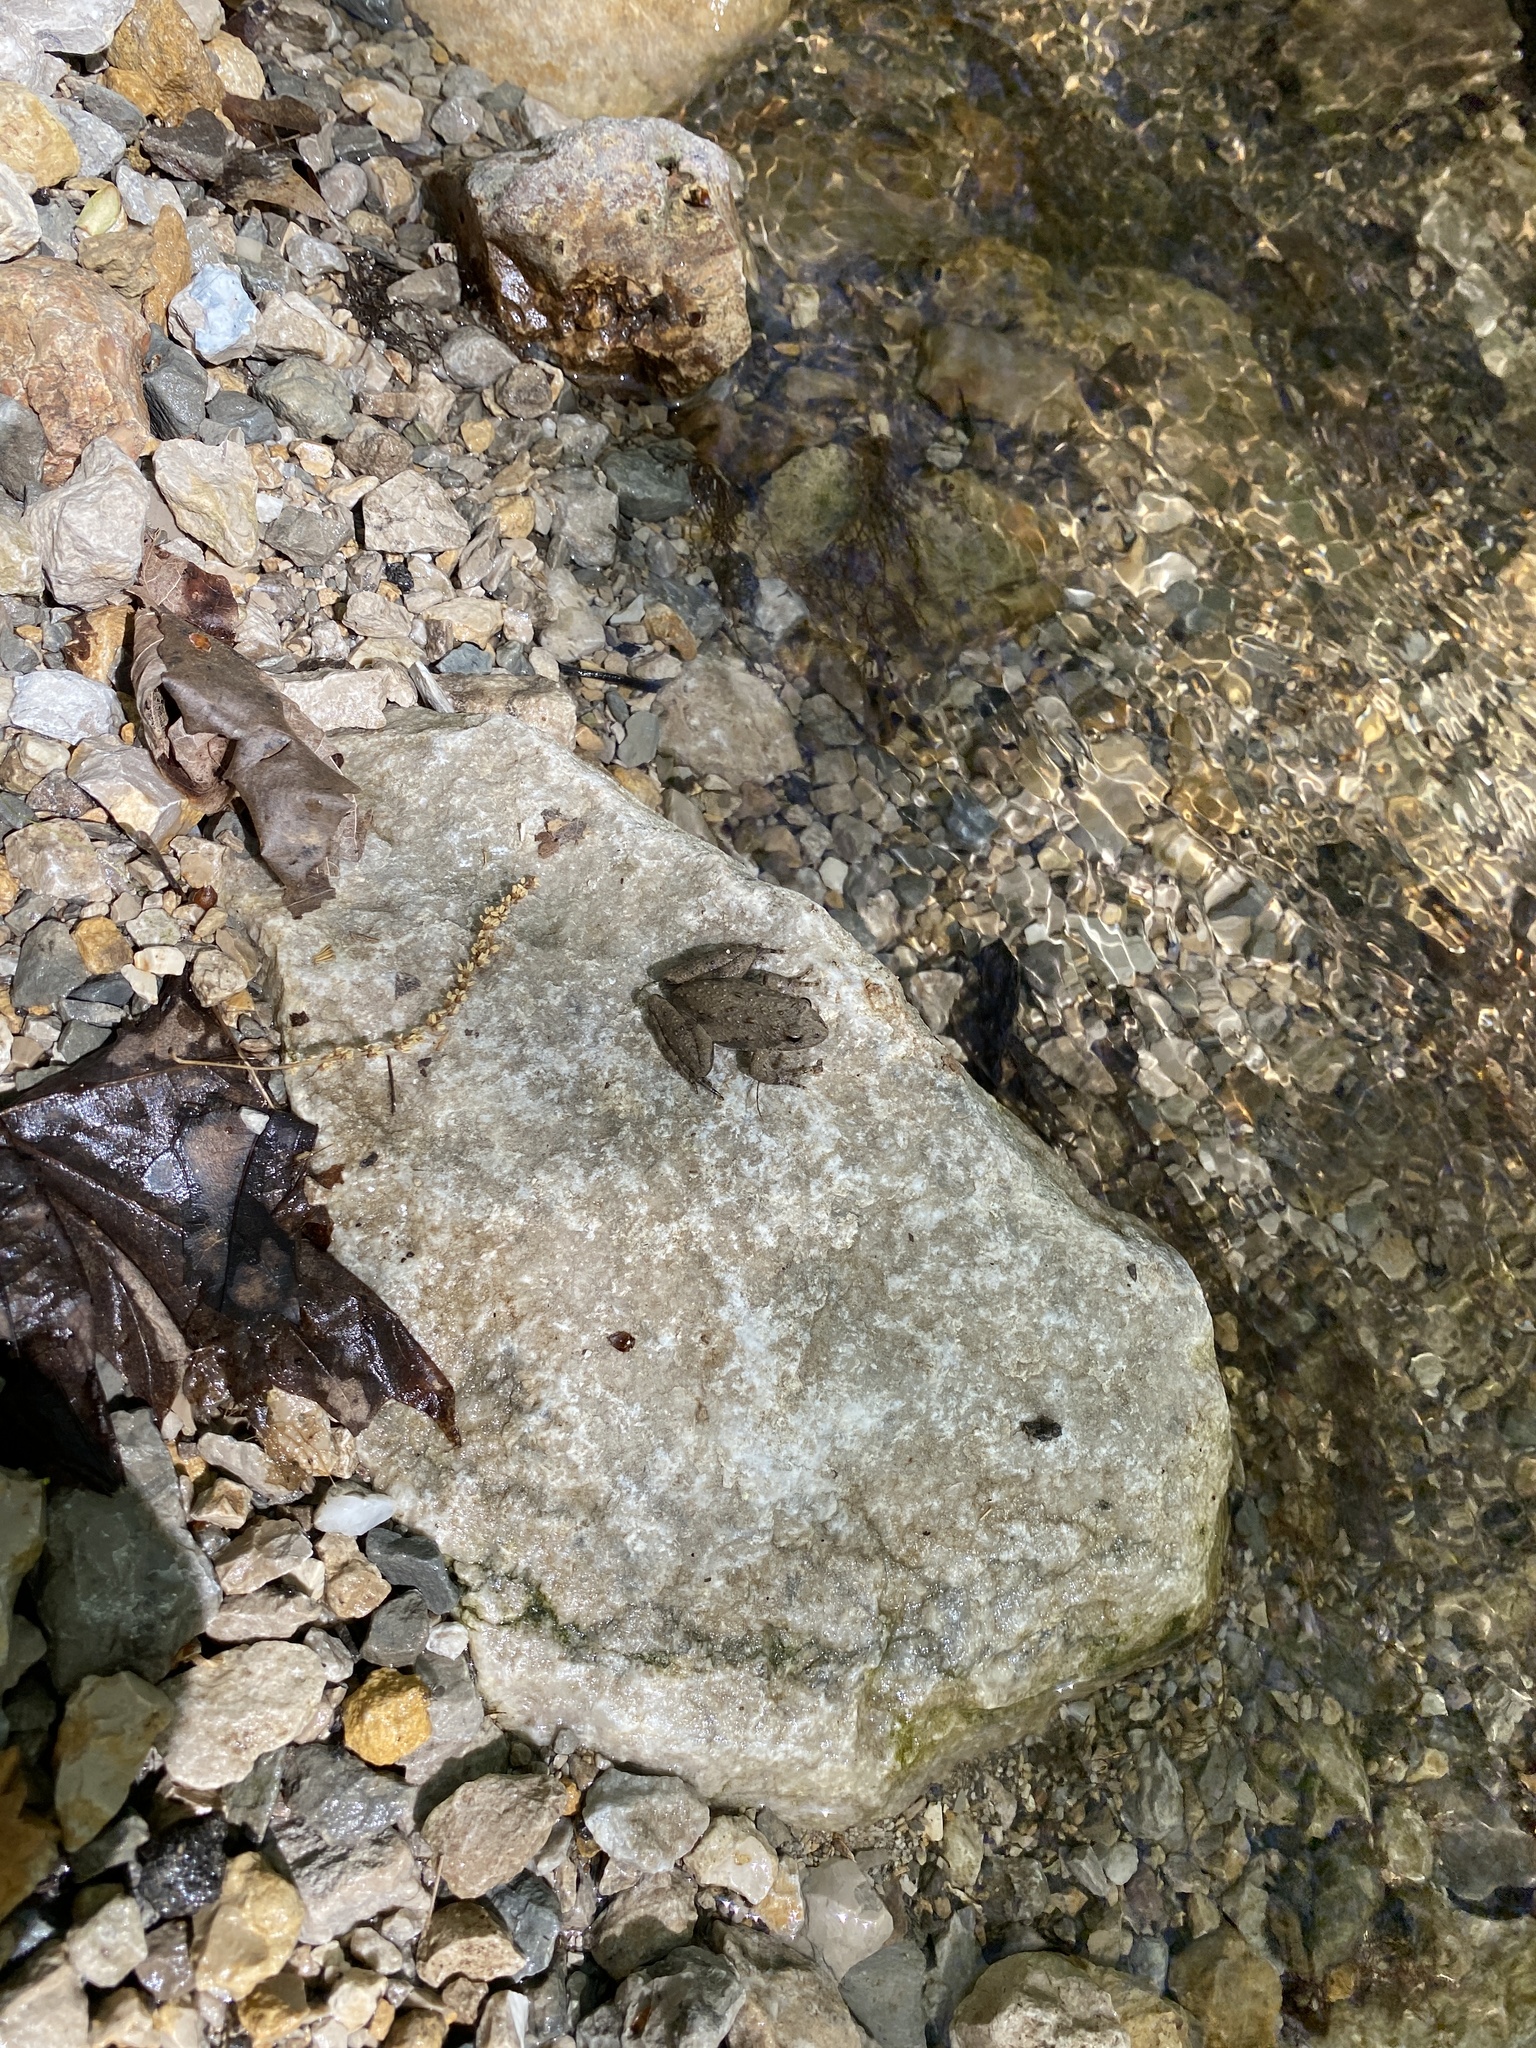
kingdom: Animalia
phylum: Chordata
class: Amphibia
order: Anura
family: Hylidae
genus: Acris
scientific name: Acris blanchardi
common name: Blanchard's cricket frog
